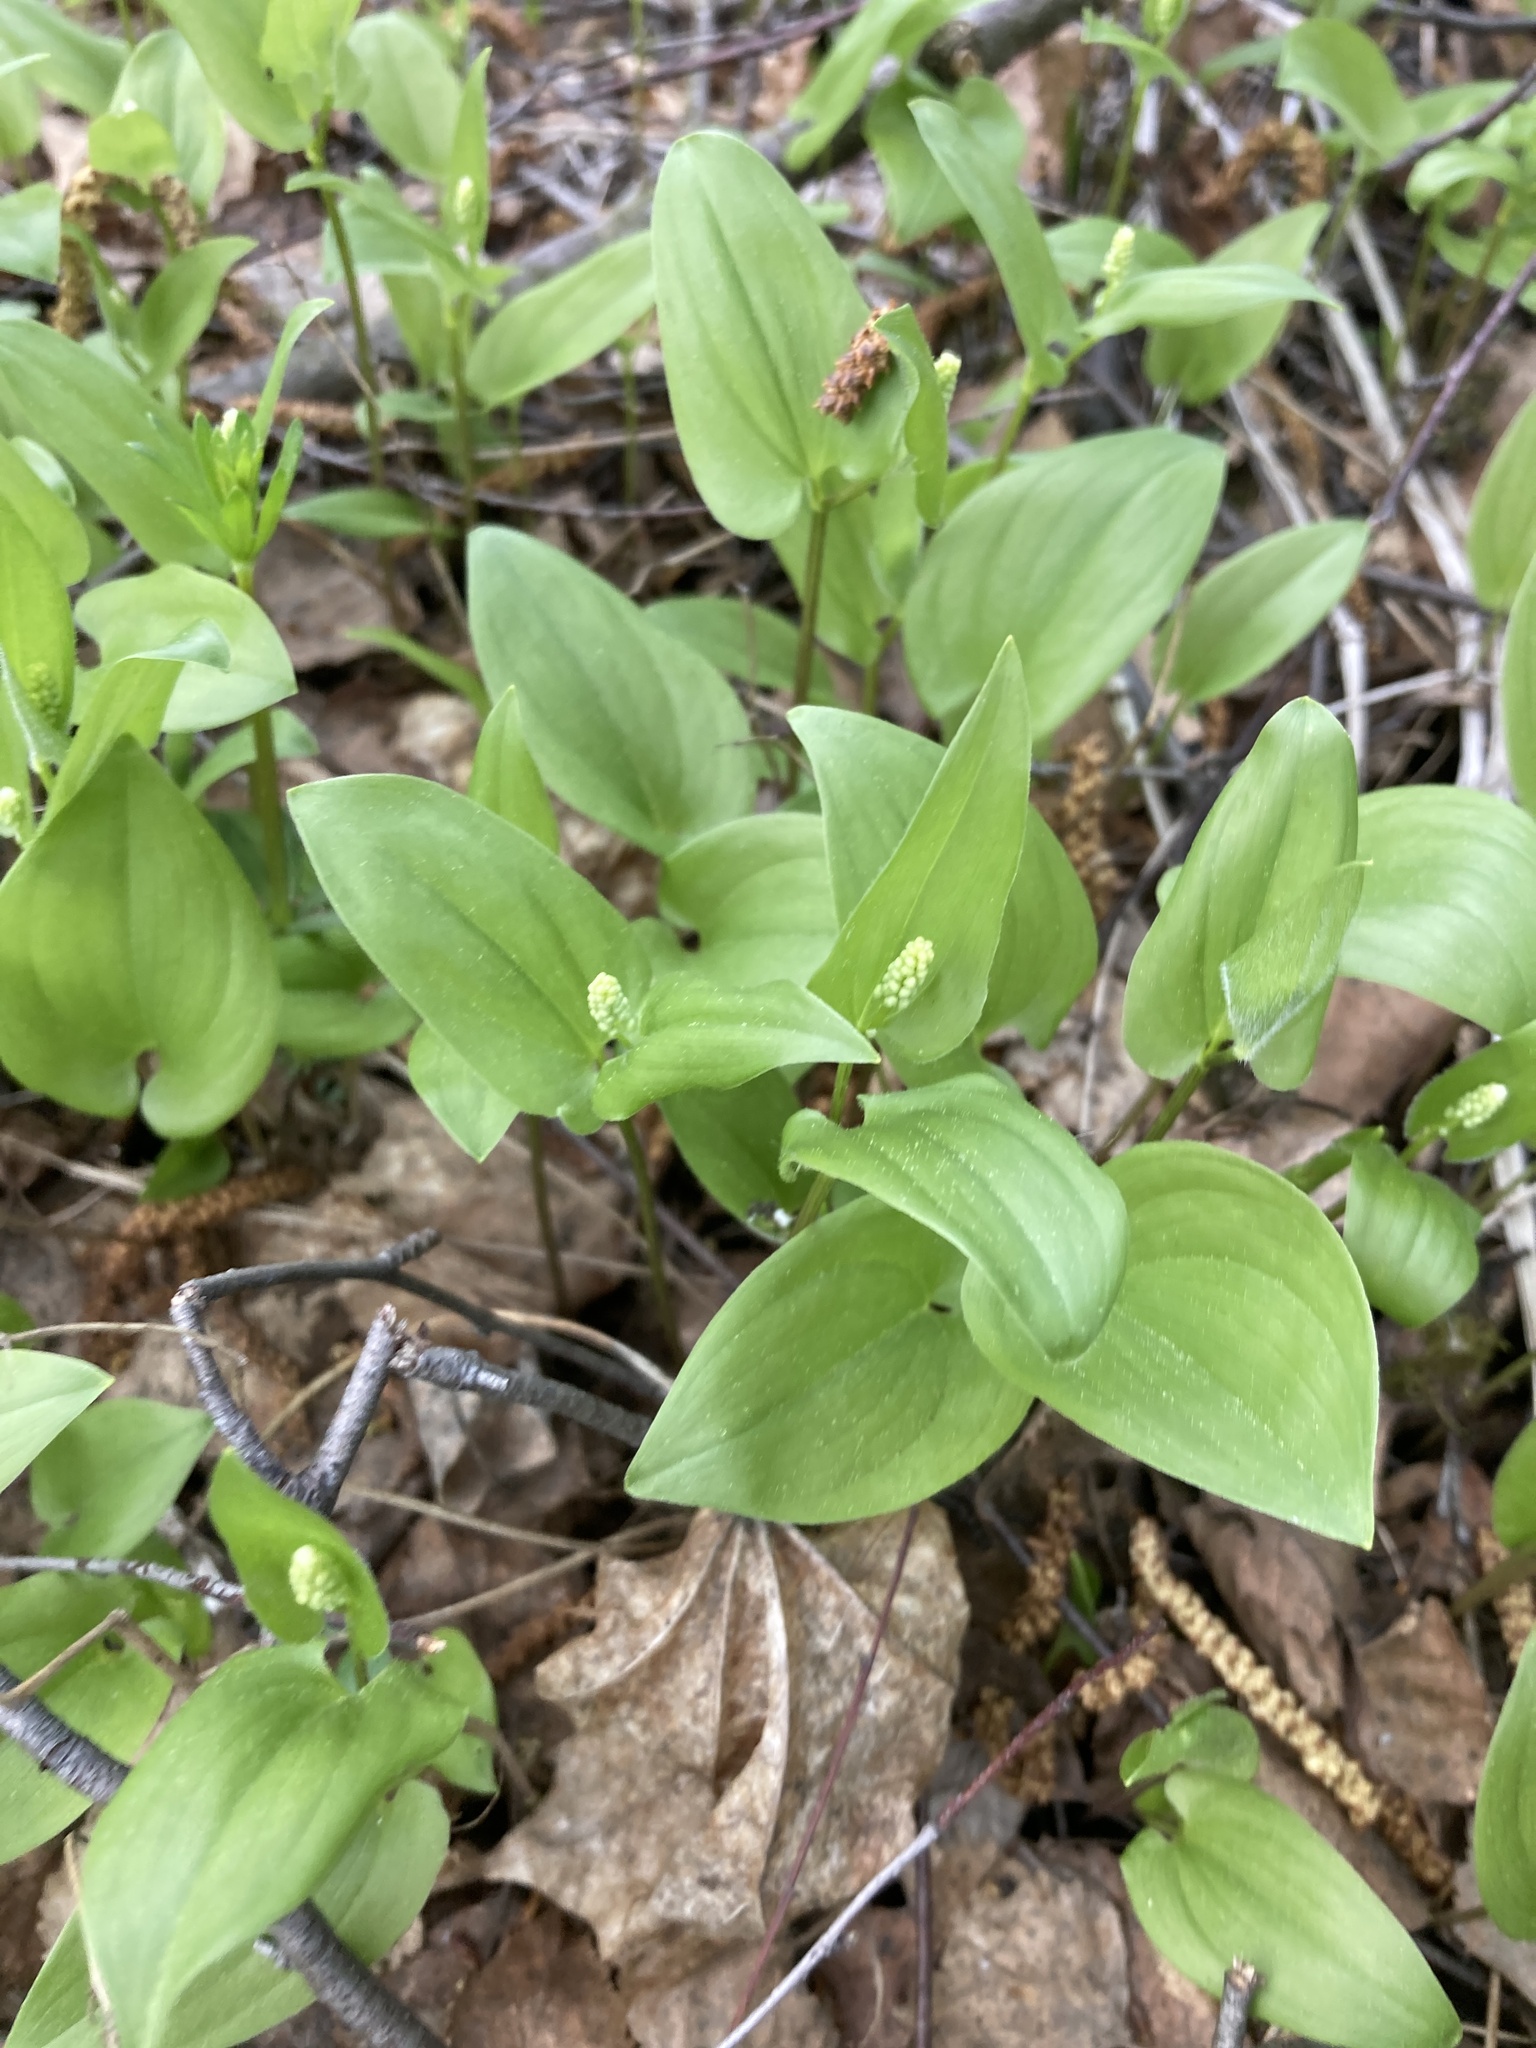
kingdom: Plantae
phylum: Tracheophyta
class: Liliopsida
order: Asparagales
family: Asparagaceae
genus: Maianthemum
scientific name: Maianthemum bifolium
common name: May lily
